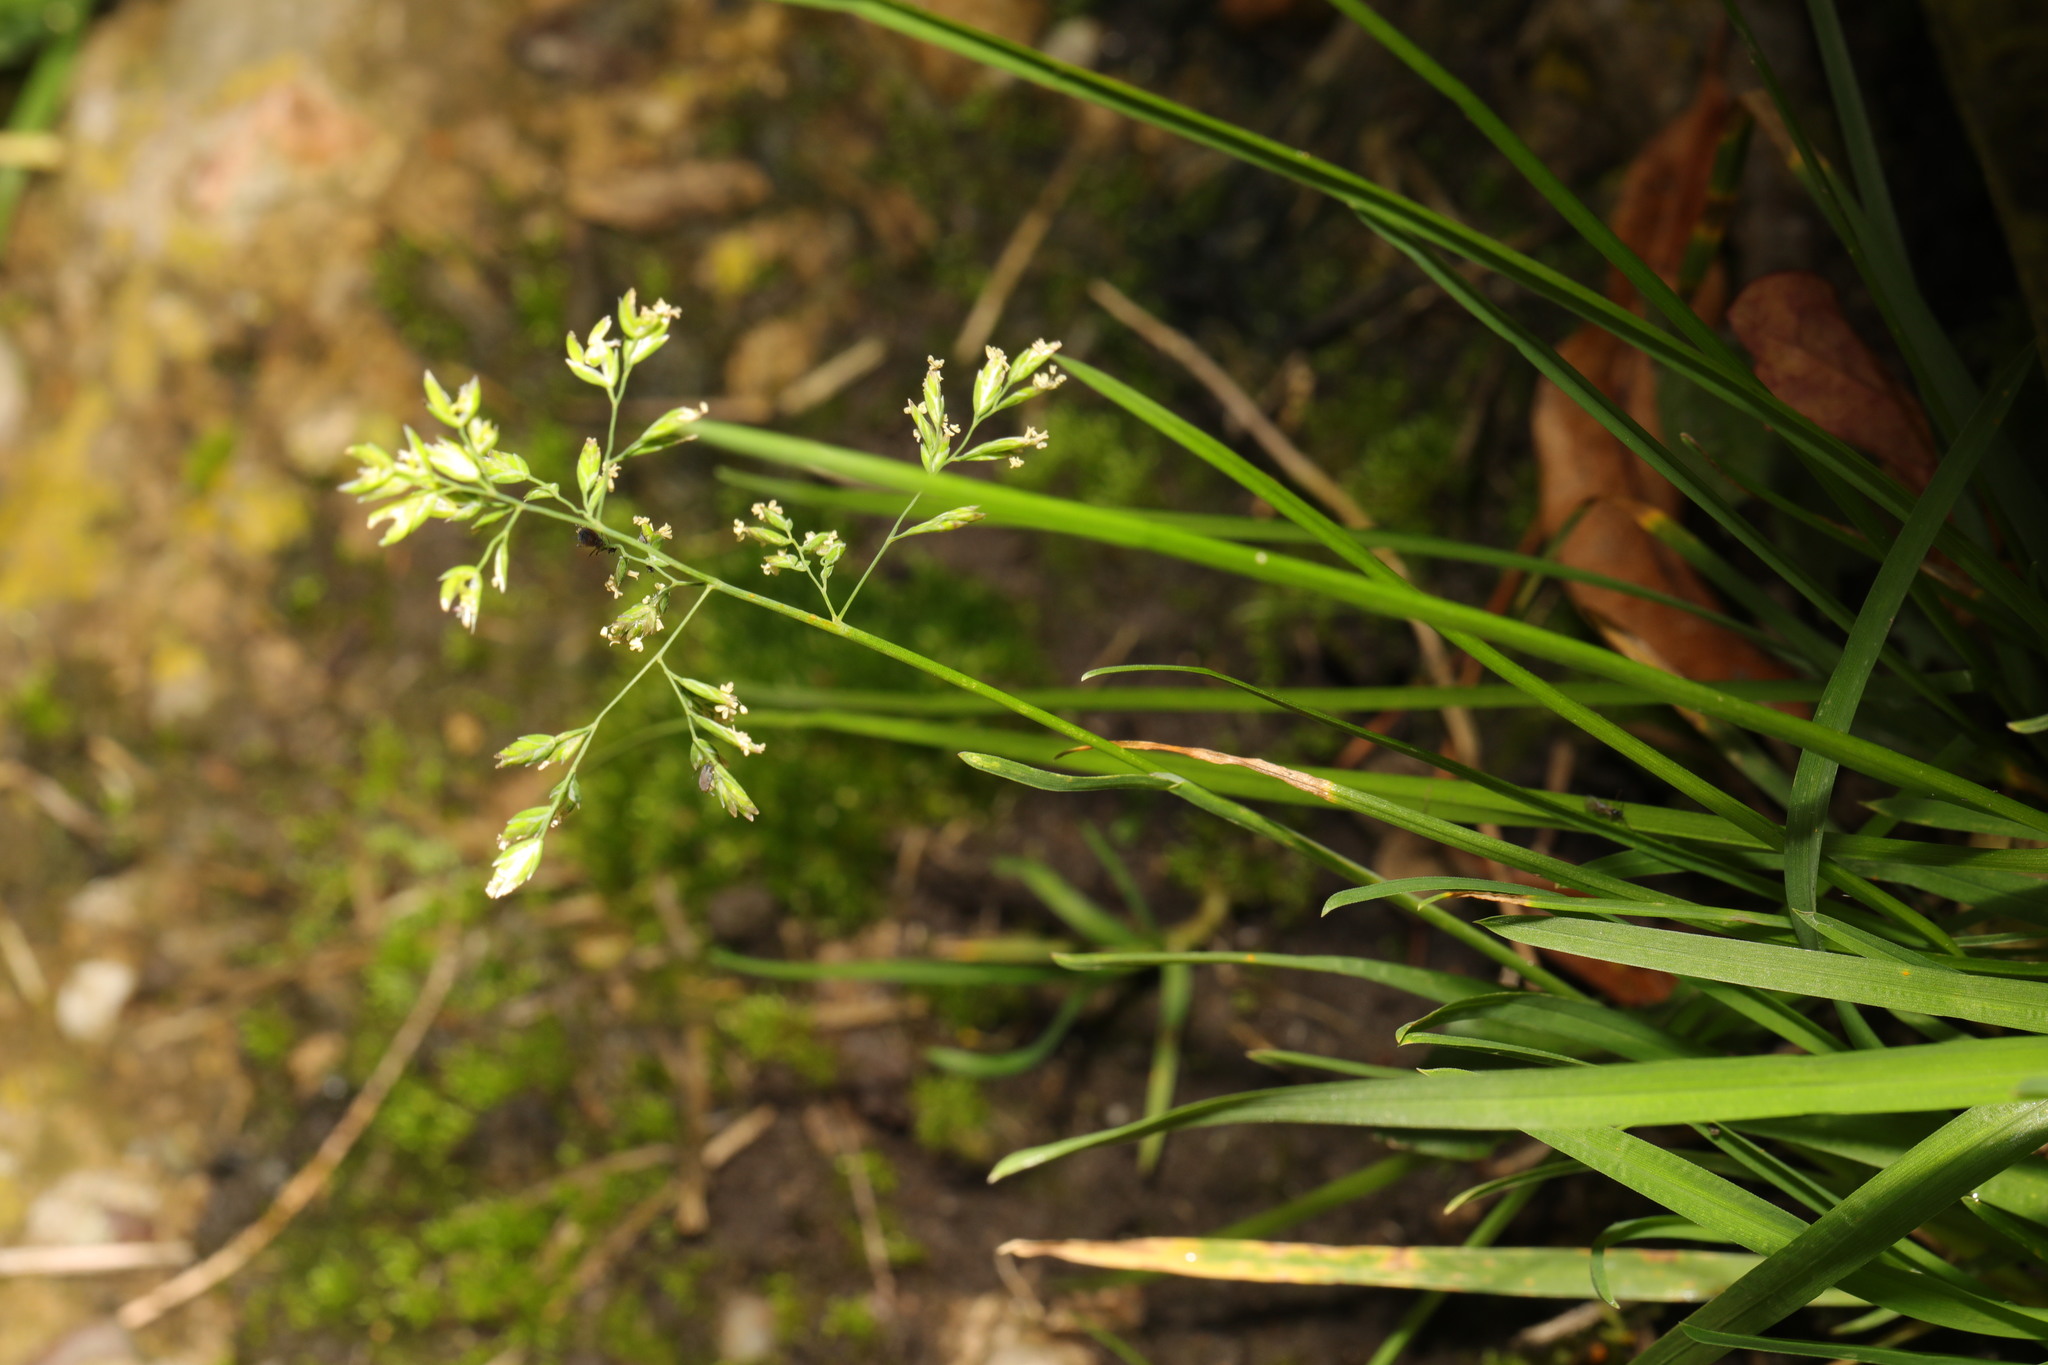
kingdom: Plantae
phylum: Tracheophyta
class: Liliopsida
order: Poales
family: Poaceae
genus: Poa
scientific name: Poa annua
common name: Annual bluegrass
